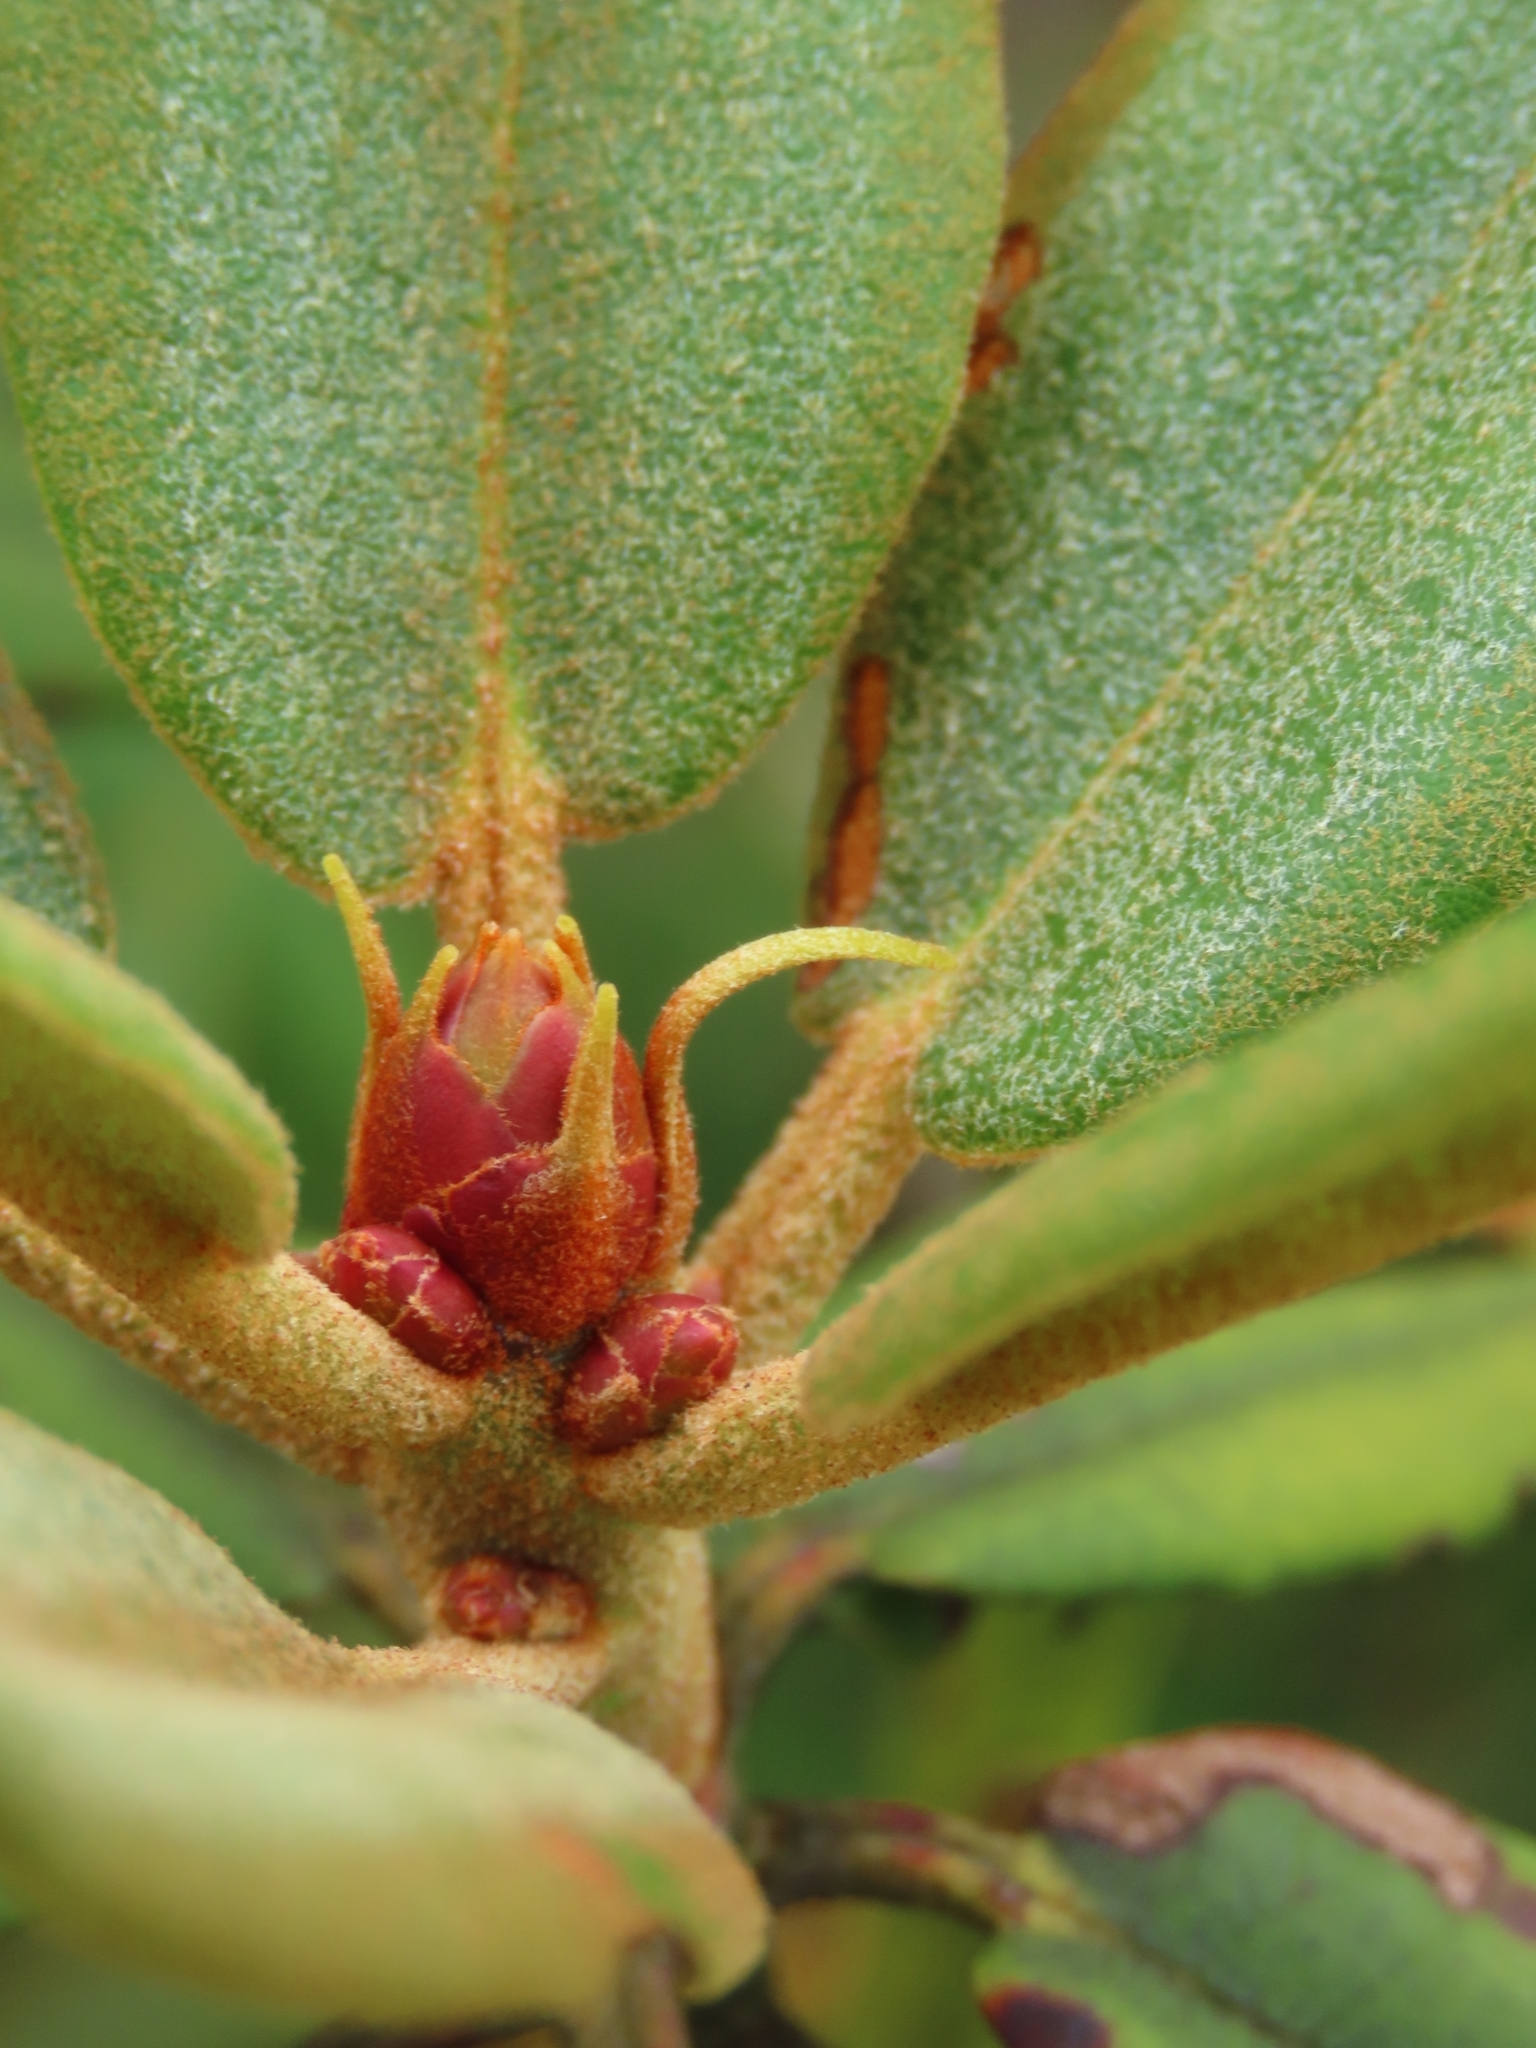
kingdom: Plantae
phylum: Tracheophyta
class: Magnoliopsida
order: Ericales
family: Ericaceae
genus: Rhododendron
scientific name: Rhododendron pseudochrysanthum
